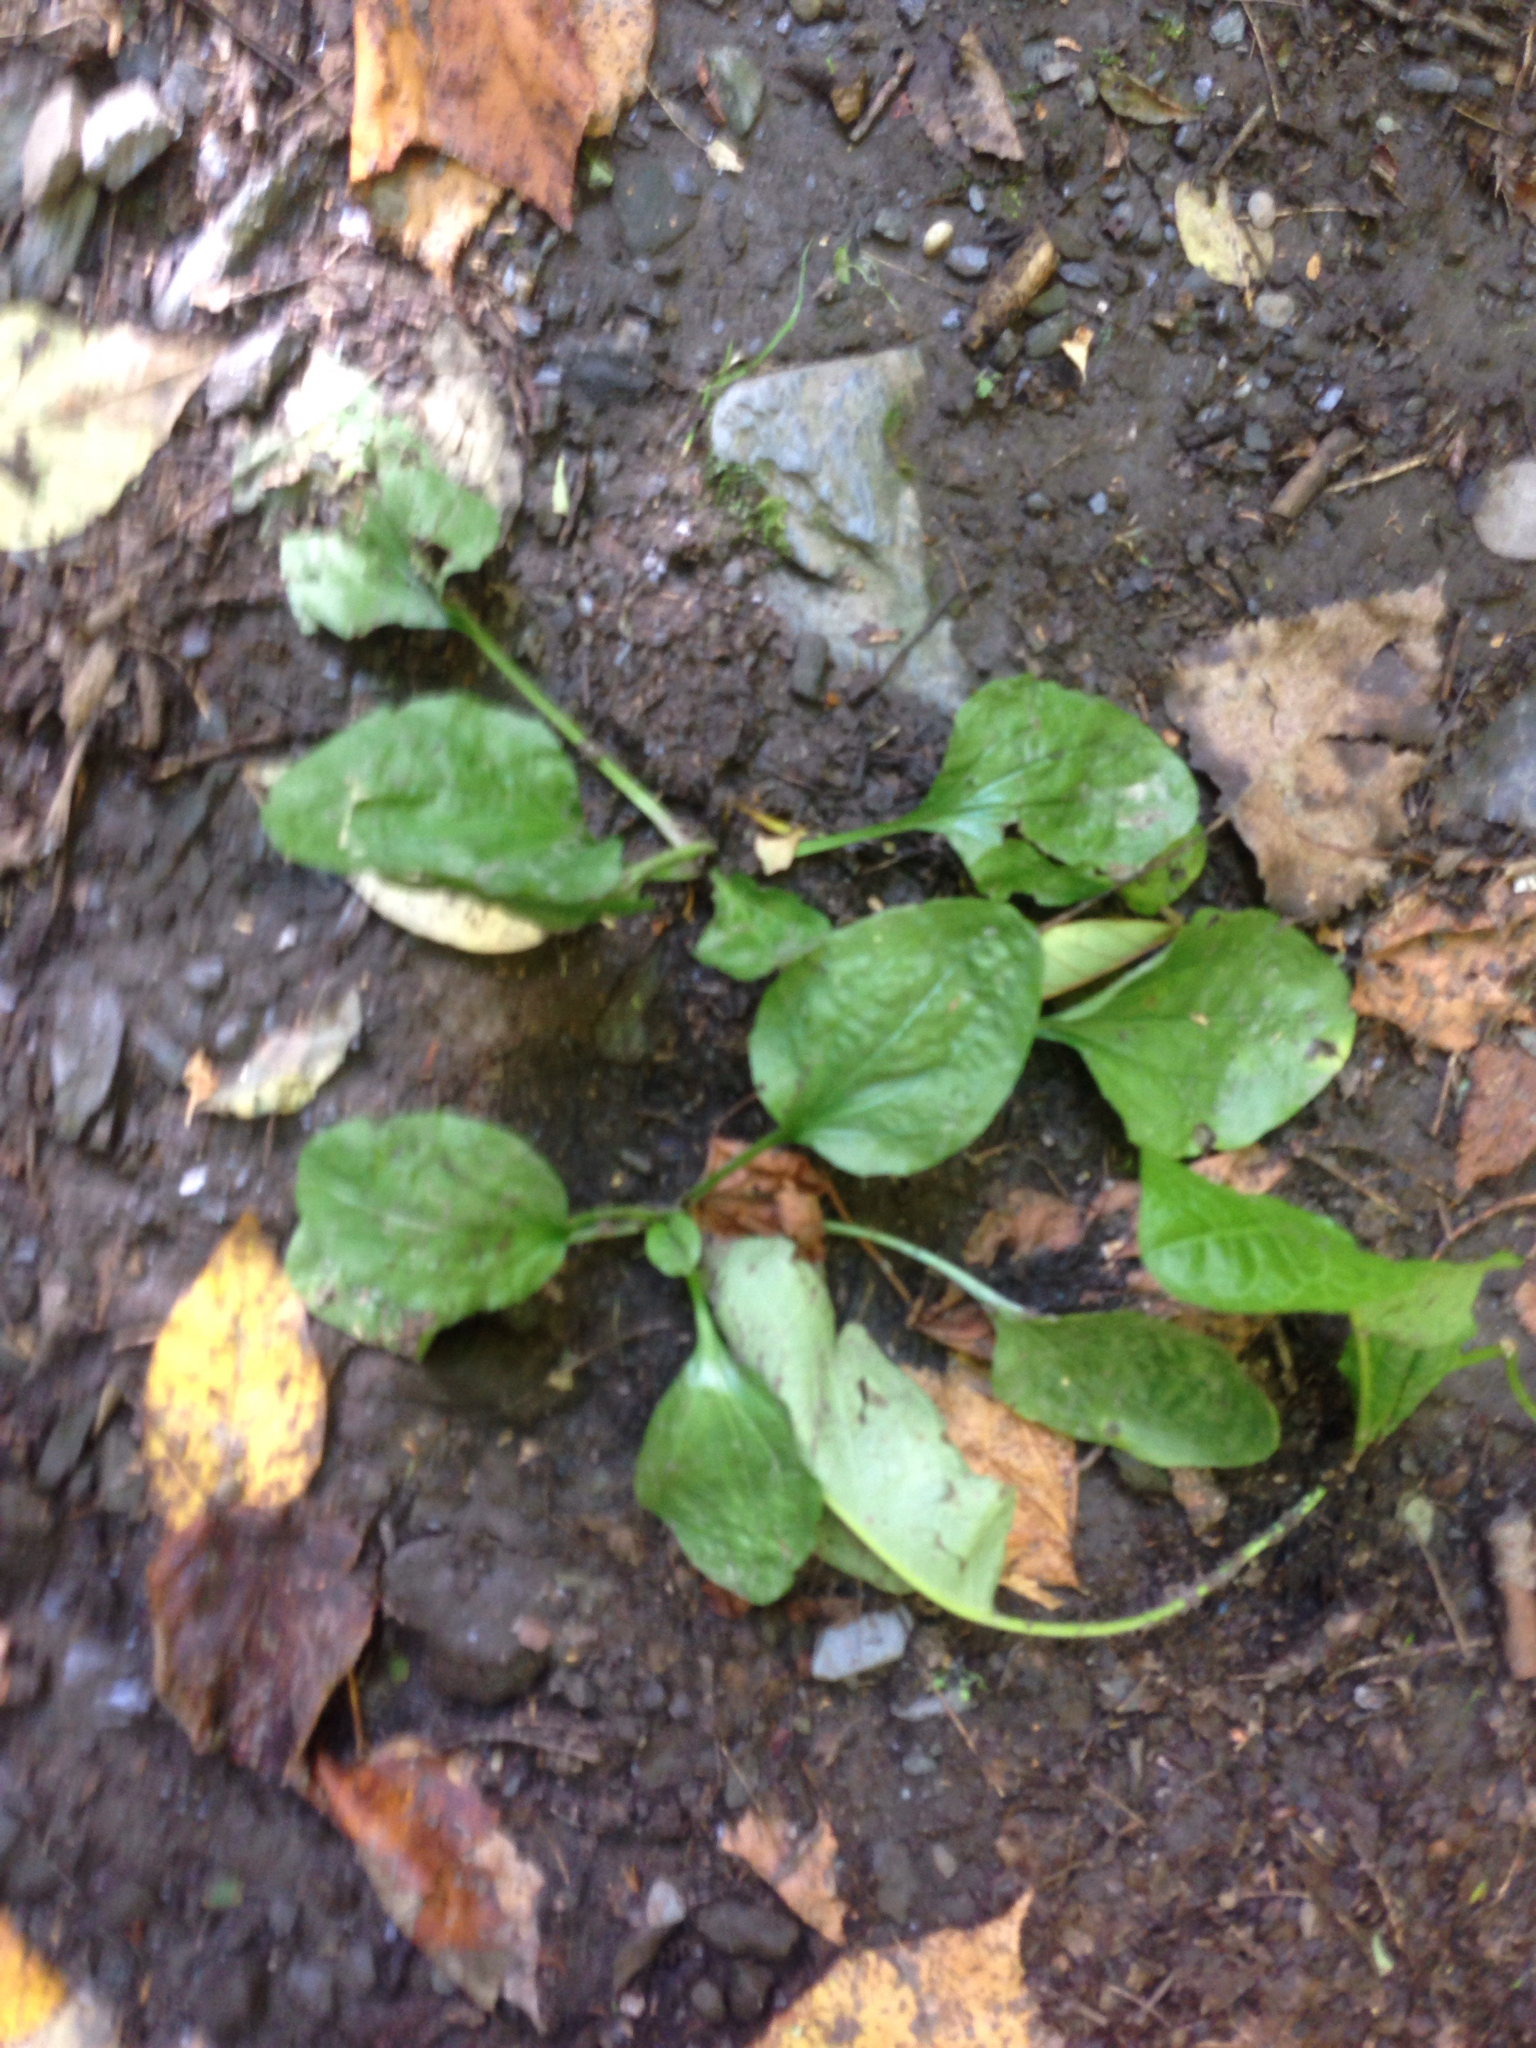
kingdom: Plantae
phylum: Tracheophyta
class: Magnoliopsida
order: Lamiales
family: Plantaginaceae
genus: Plantago
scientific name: Plantago major
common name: Common plantain
